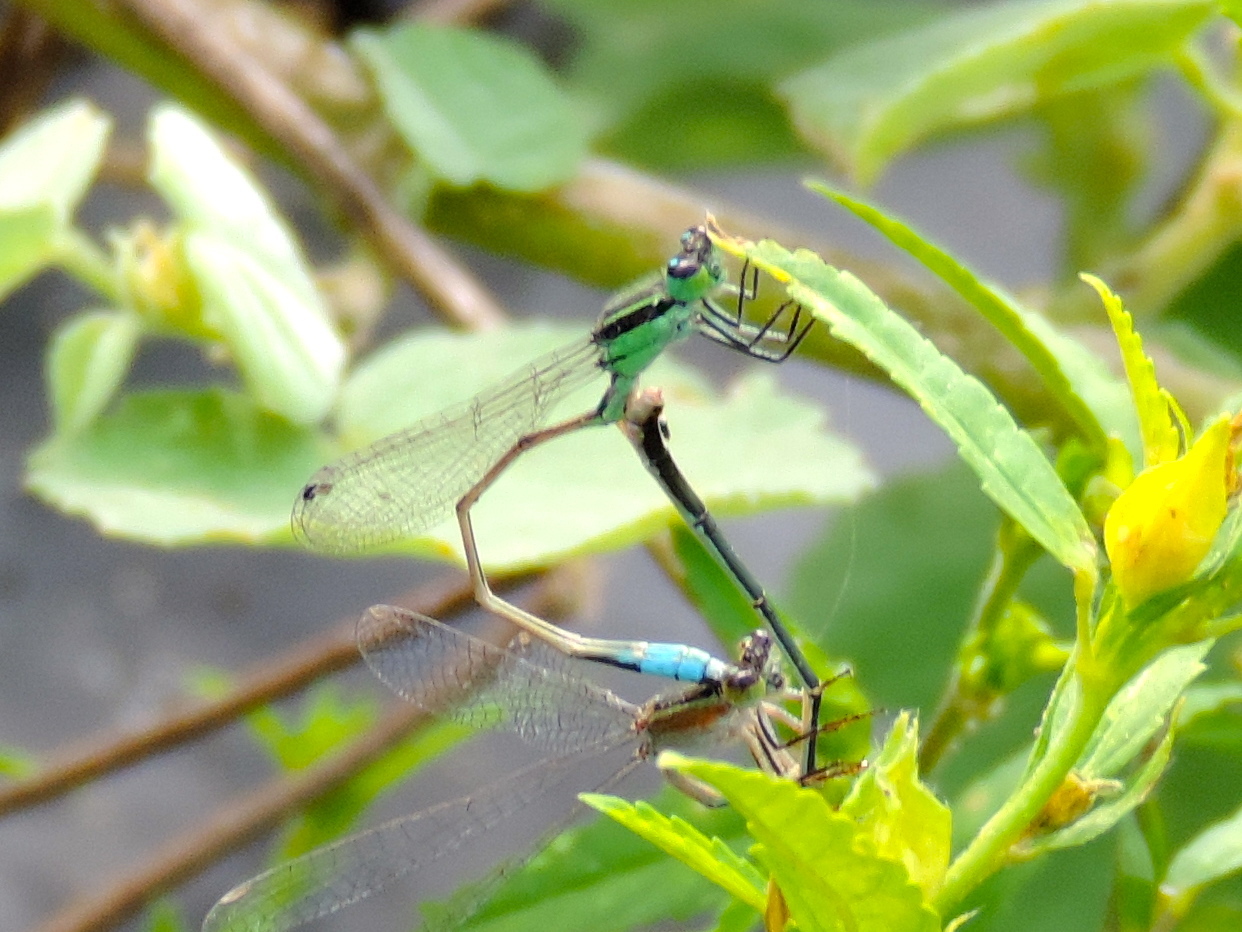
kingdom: Animalia
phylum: Arthropoda
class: Insecta
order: Odonata
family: Coenagrionidae
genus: Ischnura
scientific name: Ischnura ramburii
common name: Rambur's forktail
